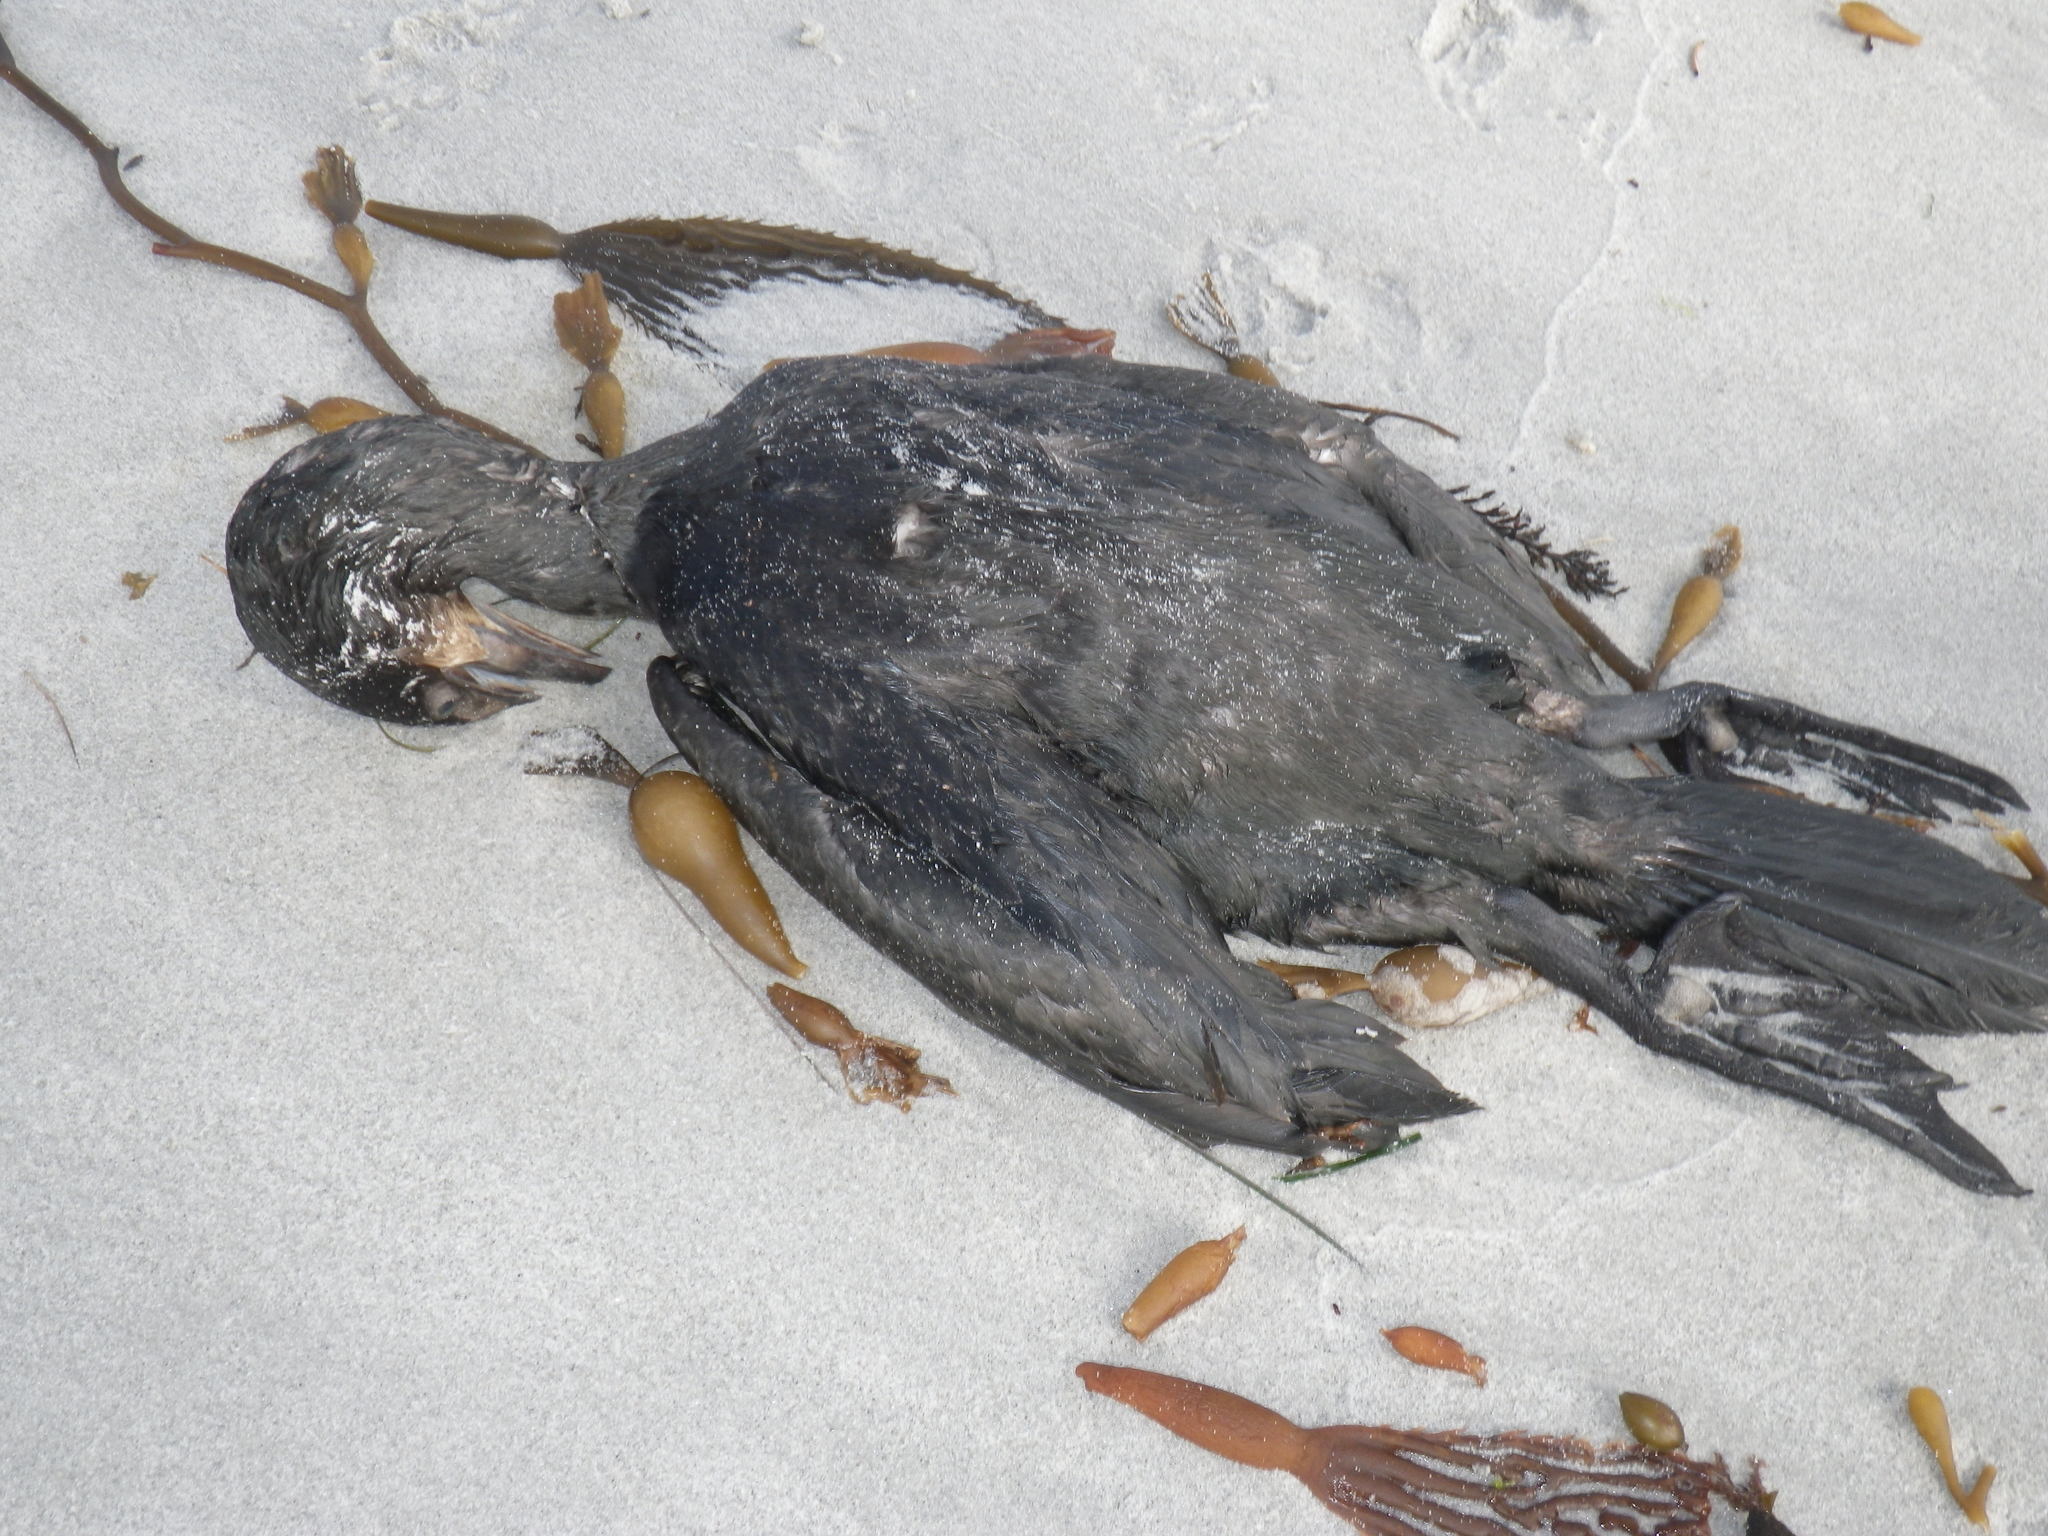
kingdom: Animalia
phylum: Chordata
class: Aves
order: Suliformes
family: Phalacrocoracidae
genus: Urile
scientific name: Urile penicillatus
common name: Brandt's cormorant
